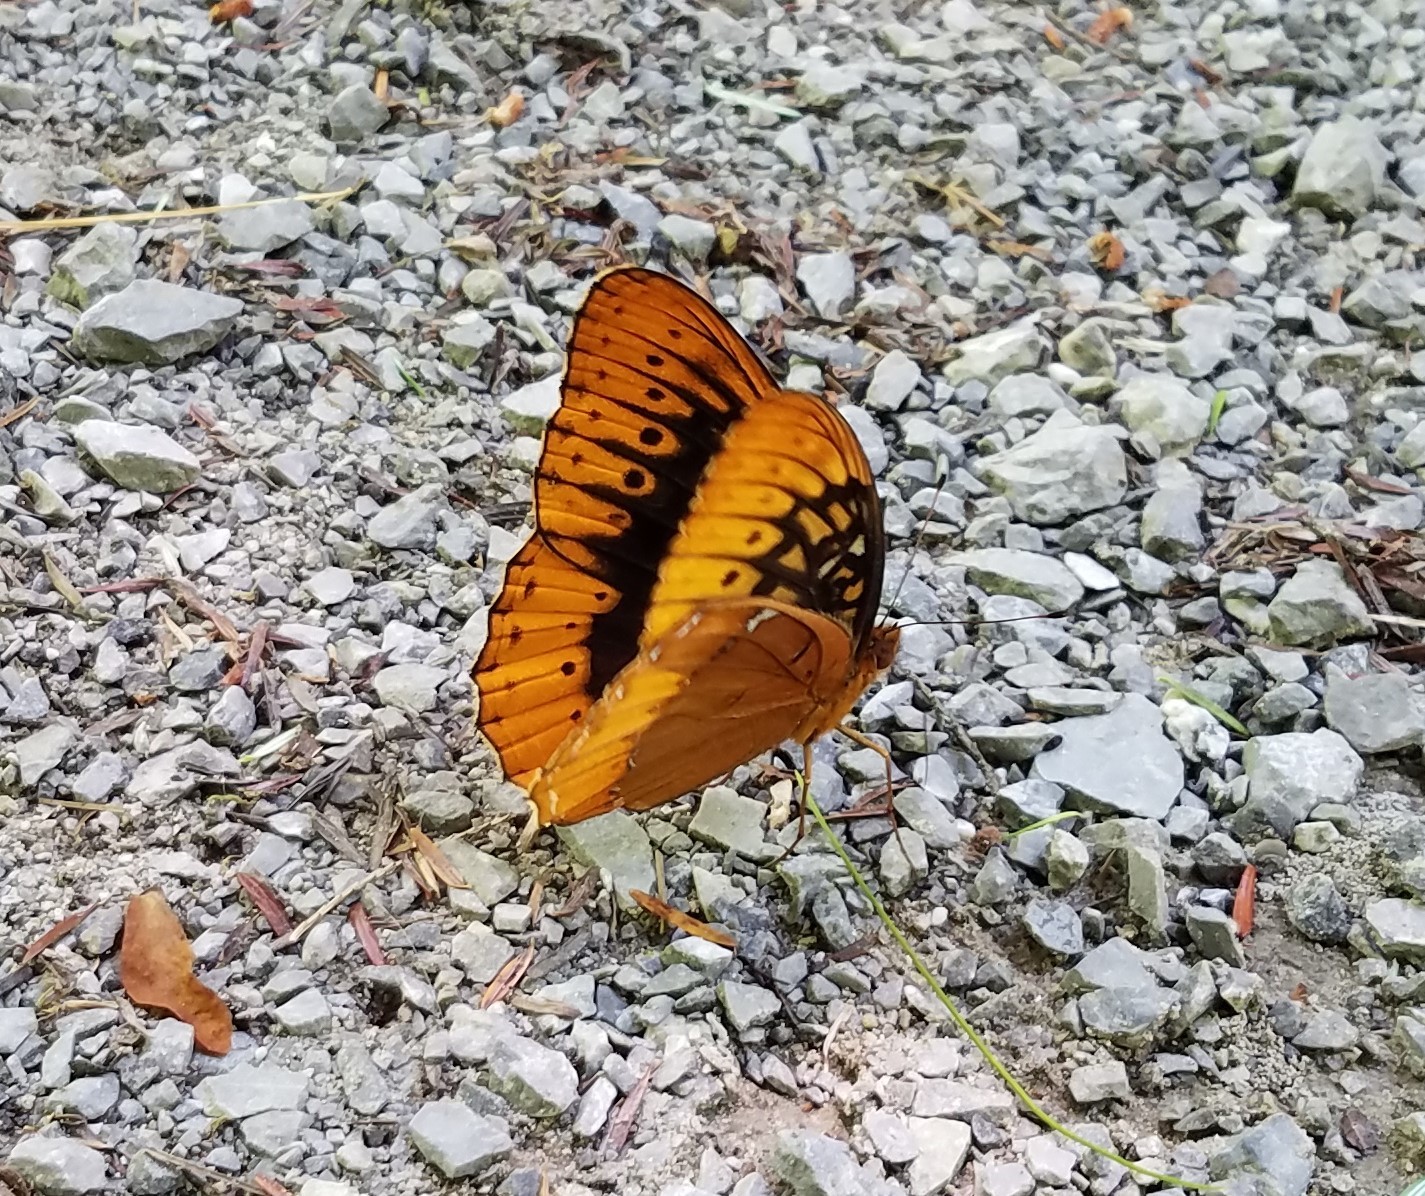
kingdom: Animalia
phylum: Arthropoda
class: Insecta
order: Lepidoptera
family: Nymphalidae
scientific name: Nymphalidae
